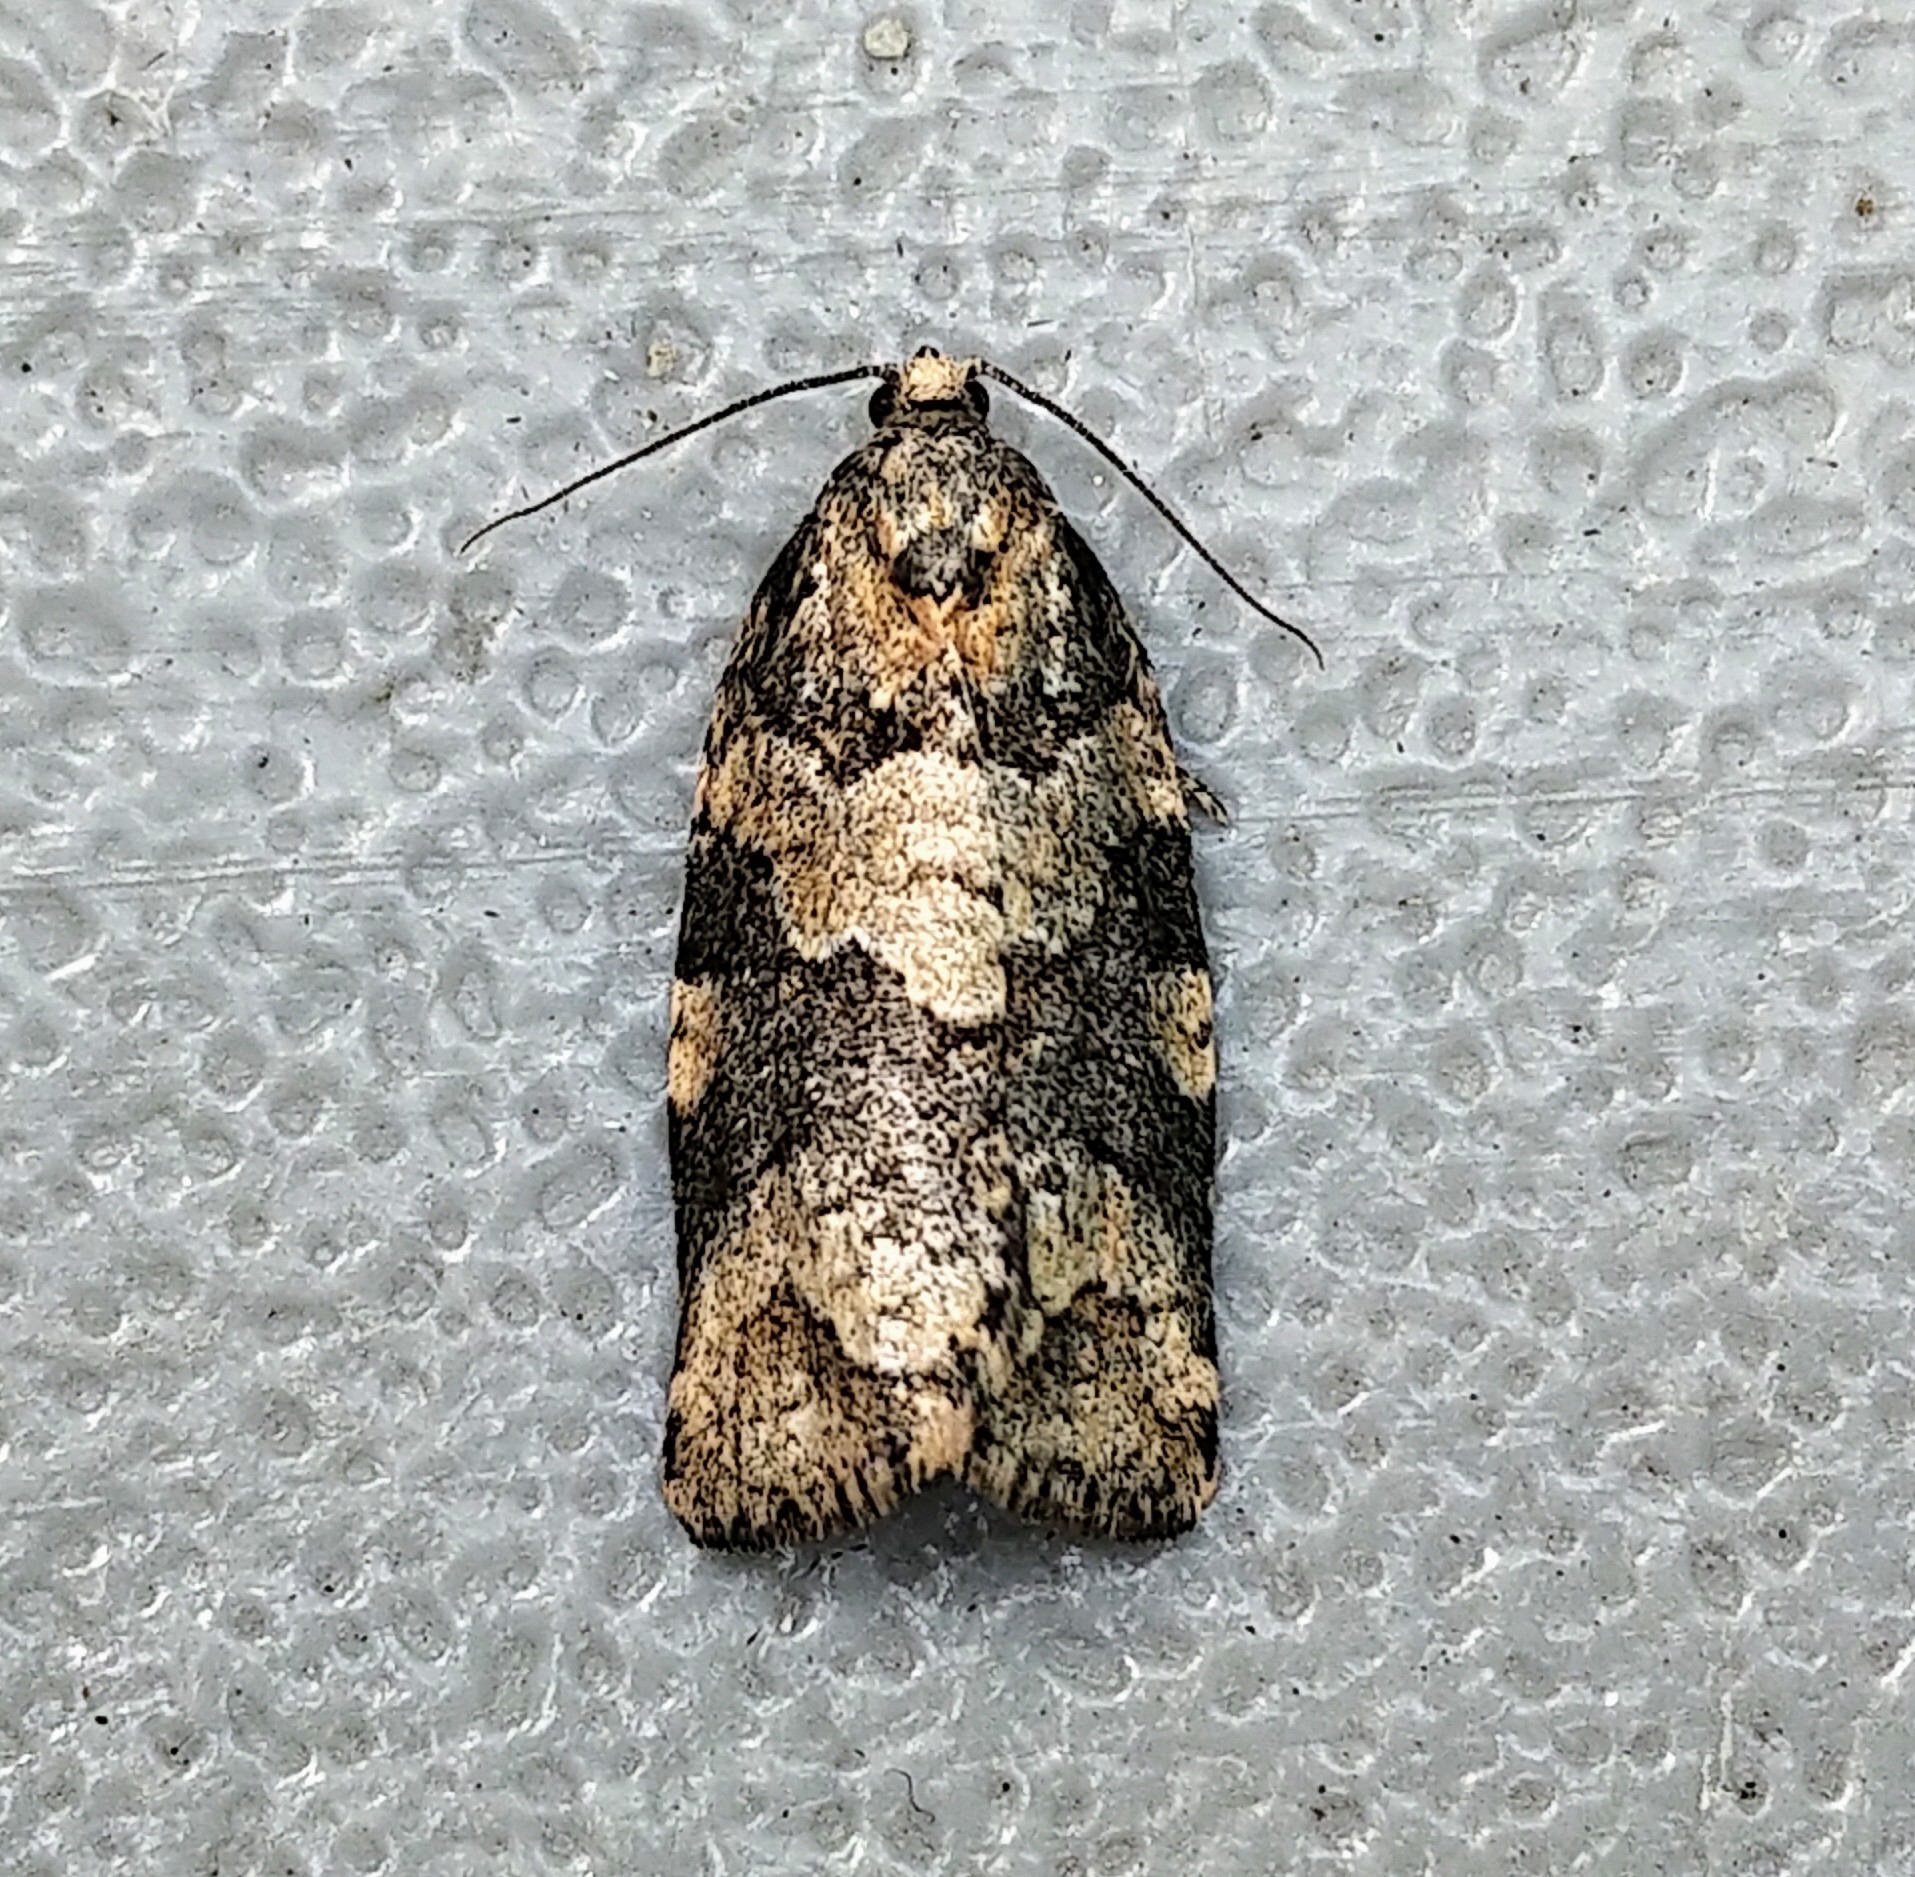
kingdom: Animalia
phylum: Arthropoda
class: Insecta
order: Lepidoptera
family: Tortricidae
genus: Archips
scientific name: Archips alberta
